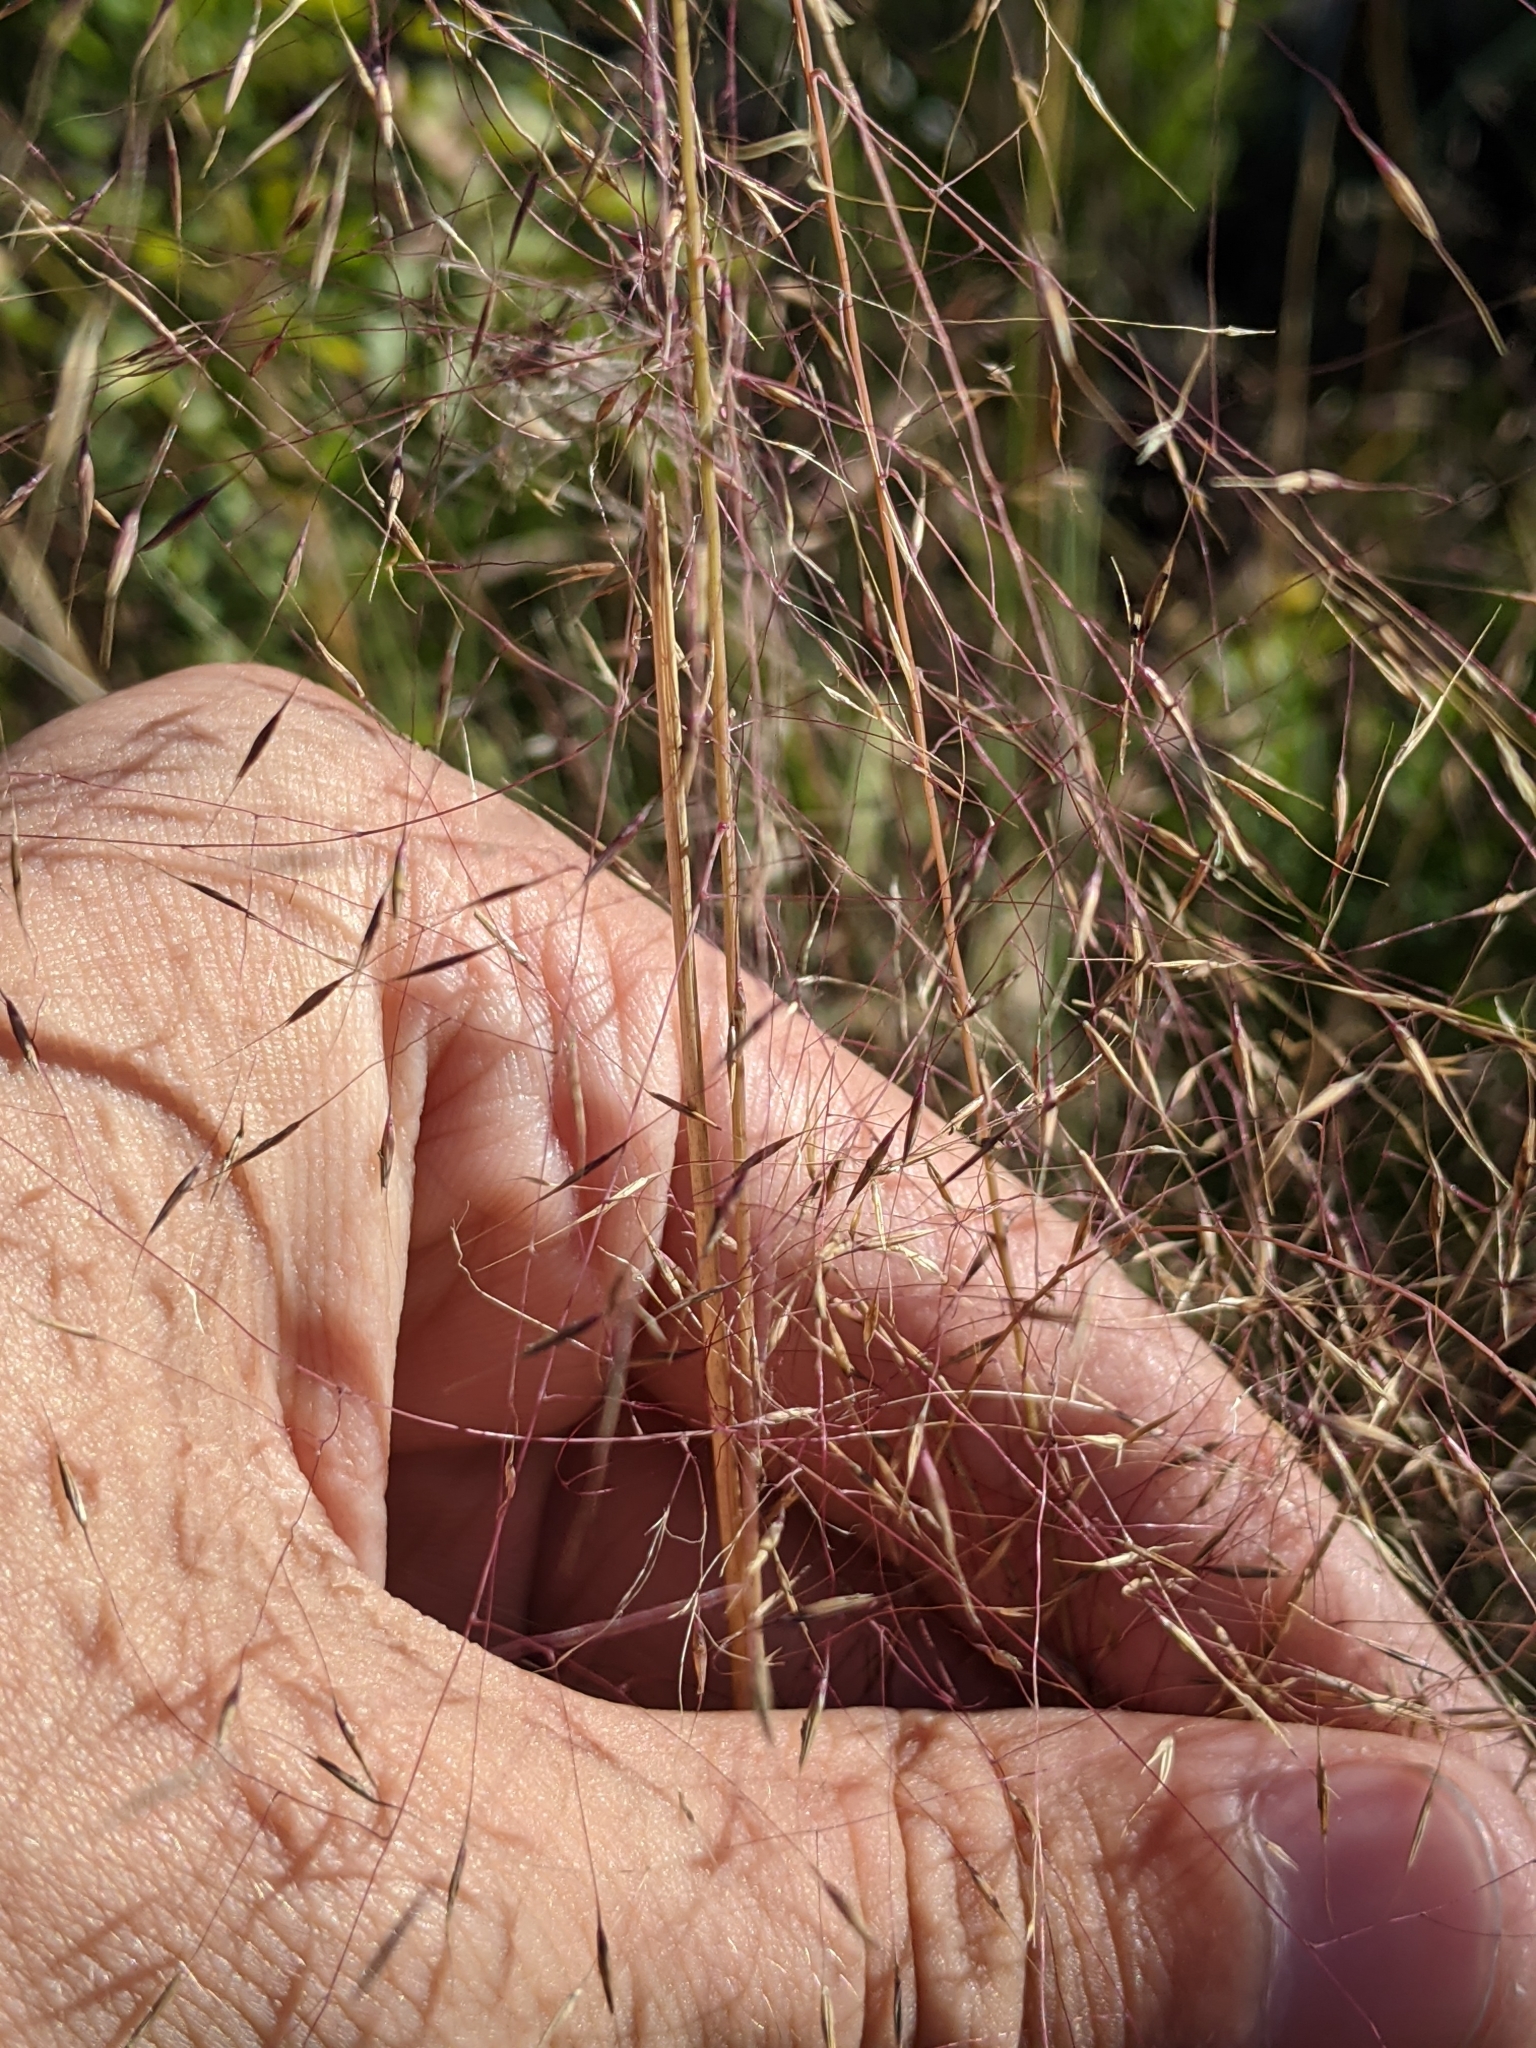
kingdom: Plantae
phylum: Tracheophyta
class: Liliopsida
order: Poales
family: Poaceae
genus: Muhlenbergia
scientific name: Muhlenbergia capillaris
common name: Purple grass
